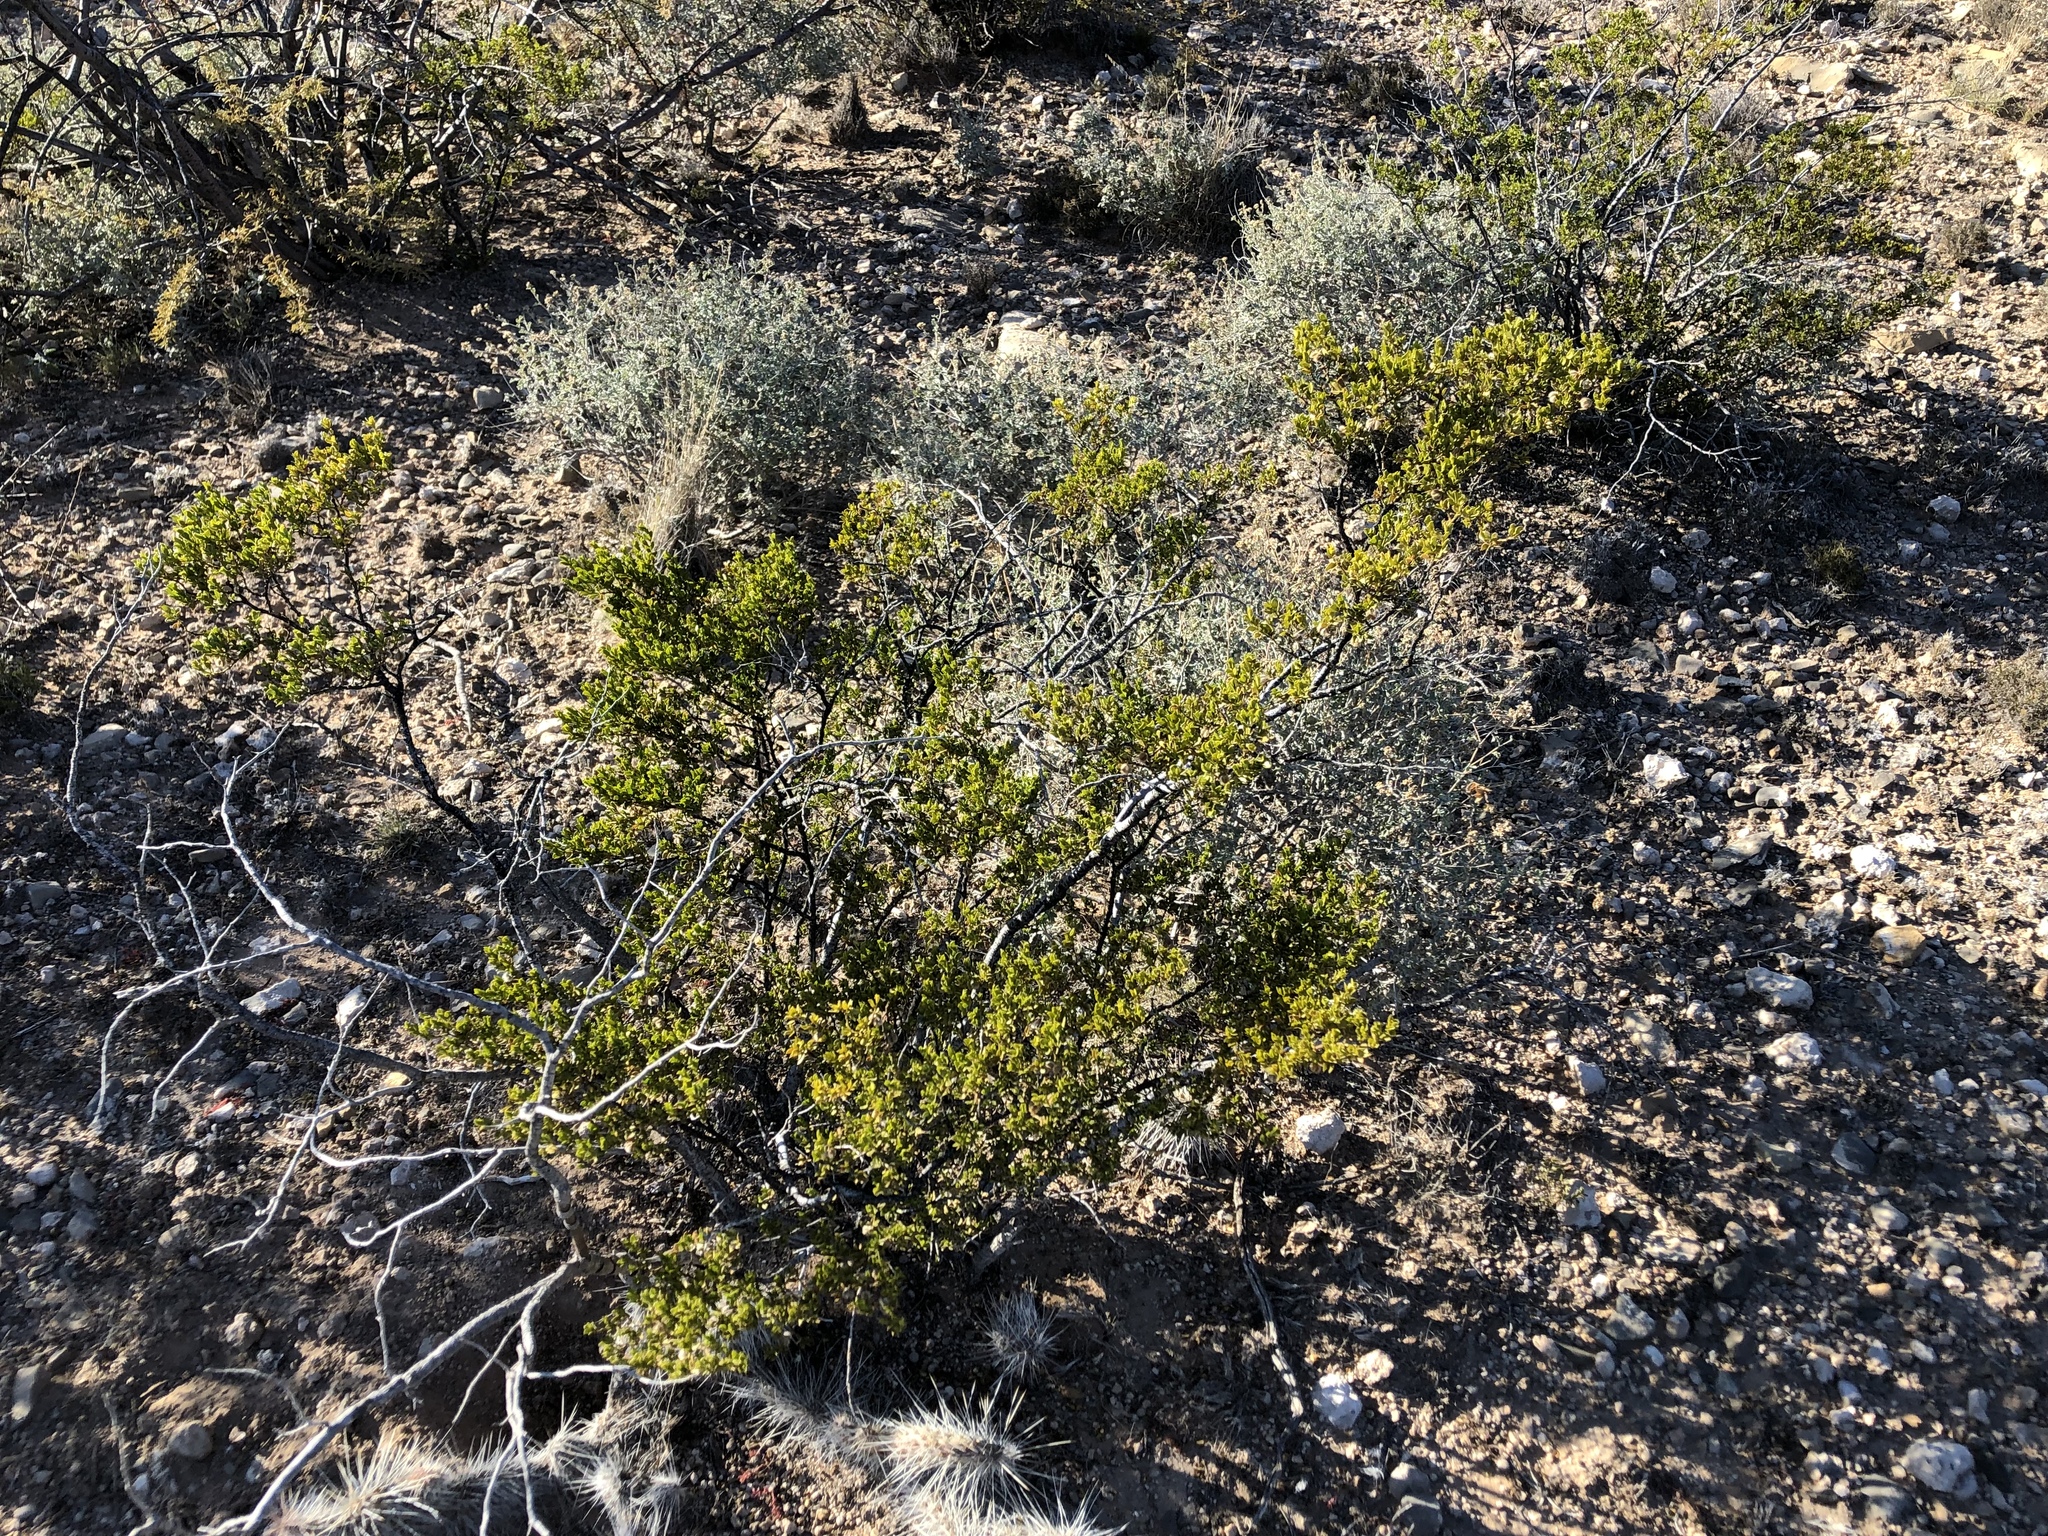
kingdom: Plantae
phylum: Tracheophyta
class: Magnoliopsida
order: Zygophyllales
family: Zygophyllaceae
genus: Larrea
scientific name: Larrea tridentata
